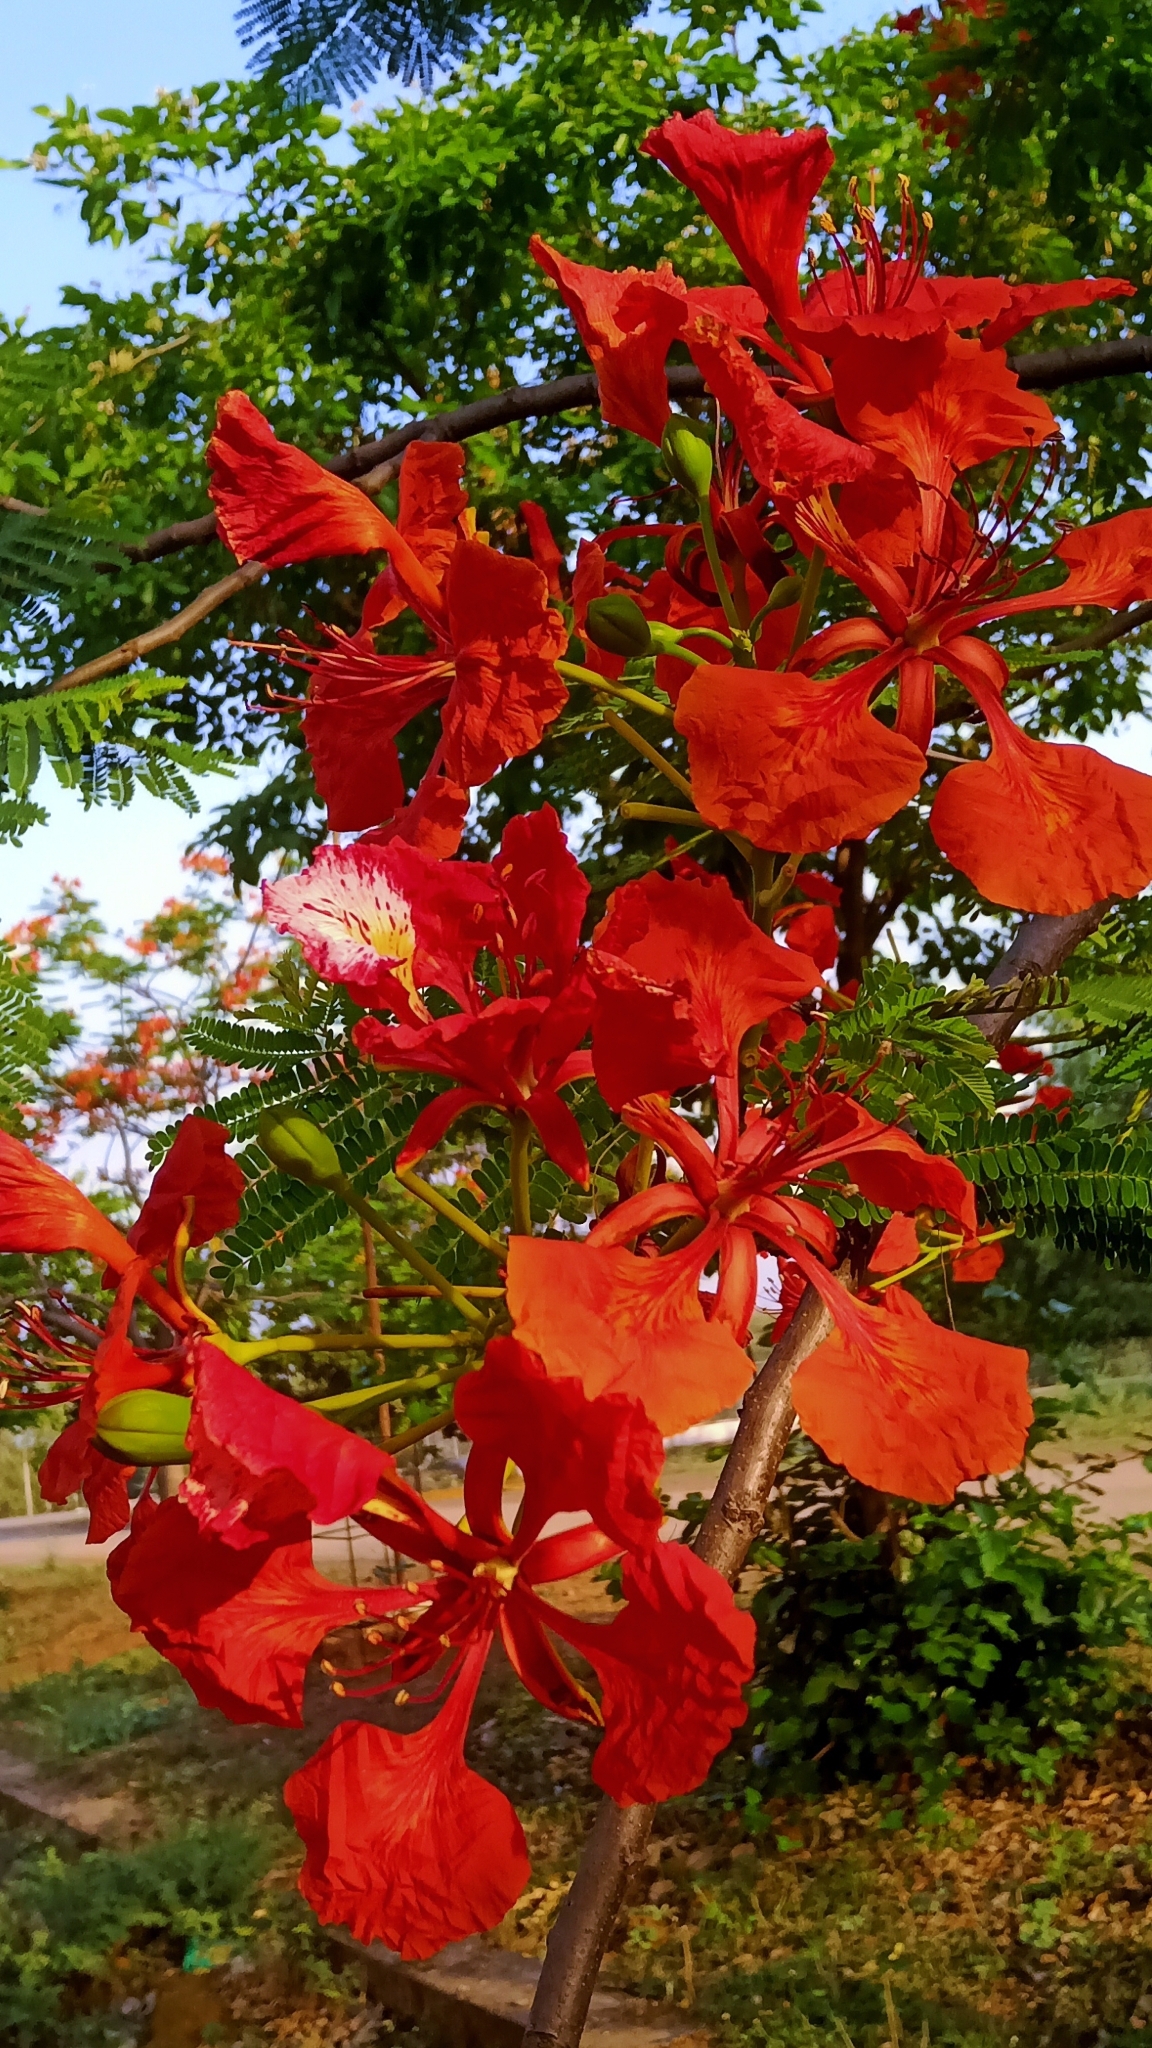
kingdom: Plantae
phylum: Tracheophyta
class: Magnoliopsida
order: Fabales
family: Fabaceae
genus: Delonix
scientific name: Delonix regia
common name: Royal poinciana
